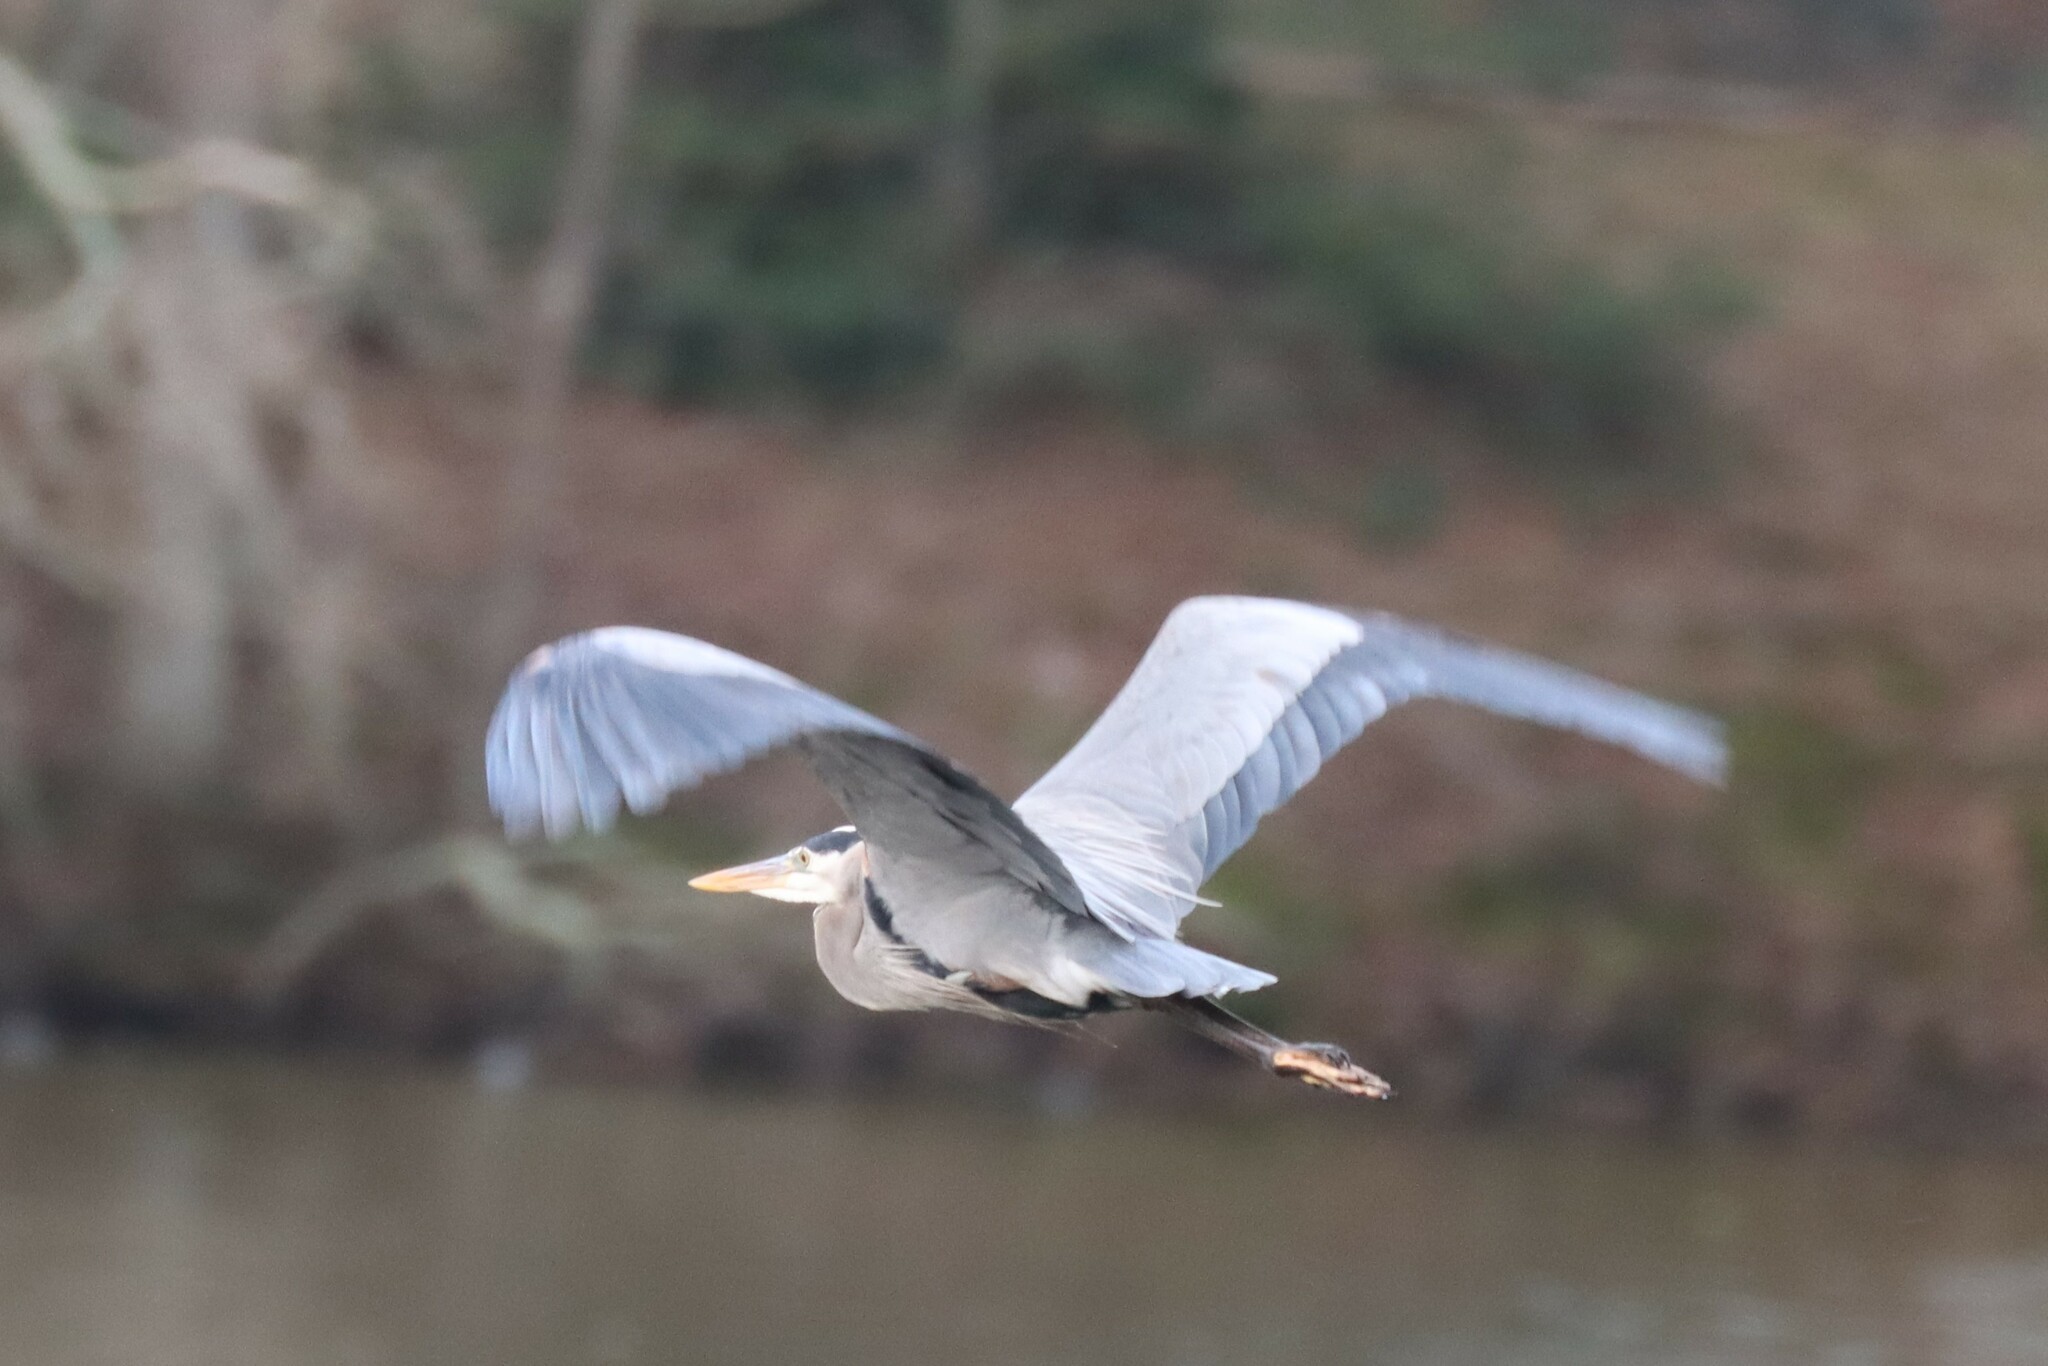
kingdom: Animalia
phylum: Chordata
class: Aves
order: Pelecaniformes
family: Ardeidae
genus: Ardea
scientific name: Ardea herodias
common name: Great blue heron
